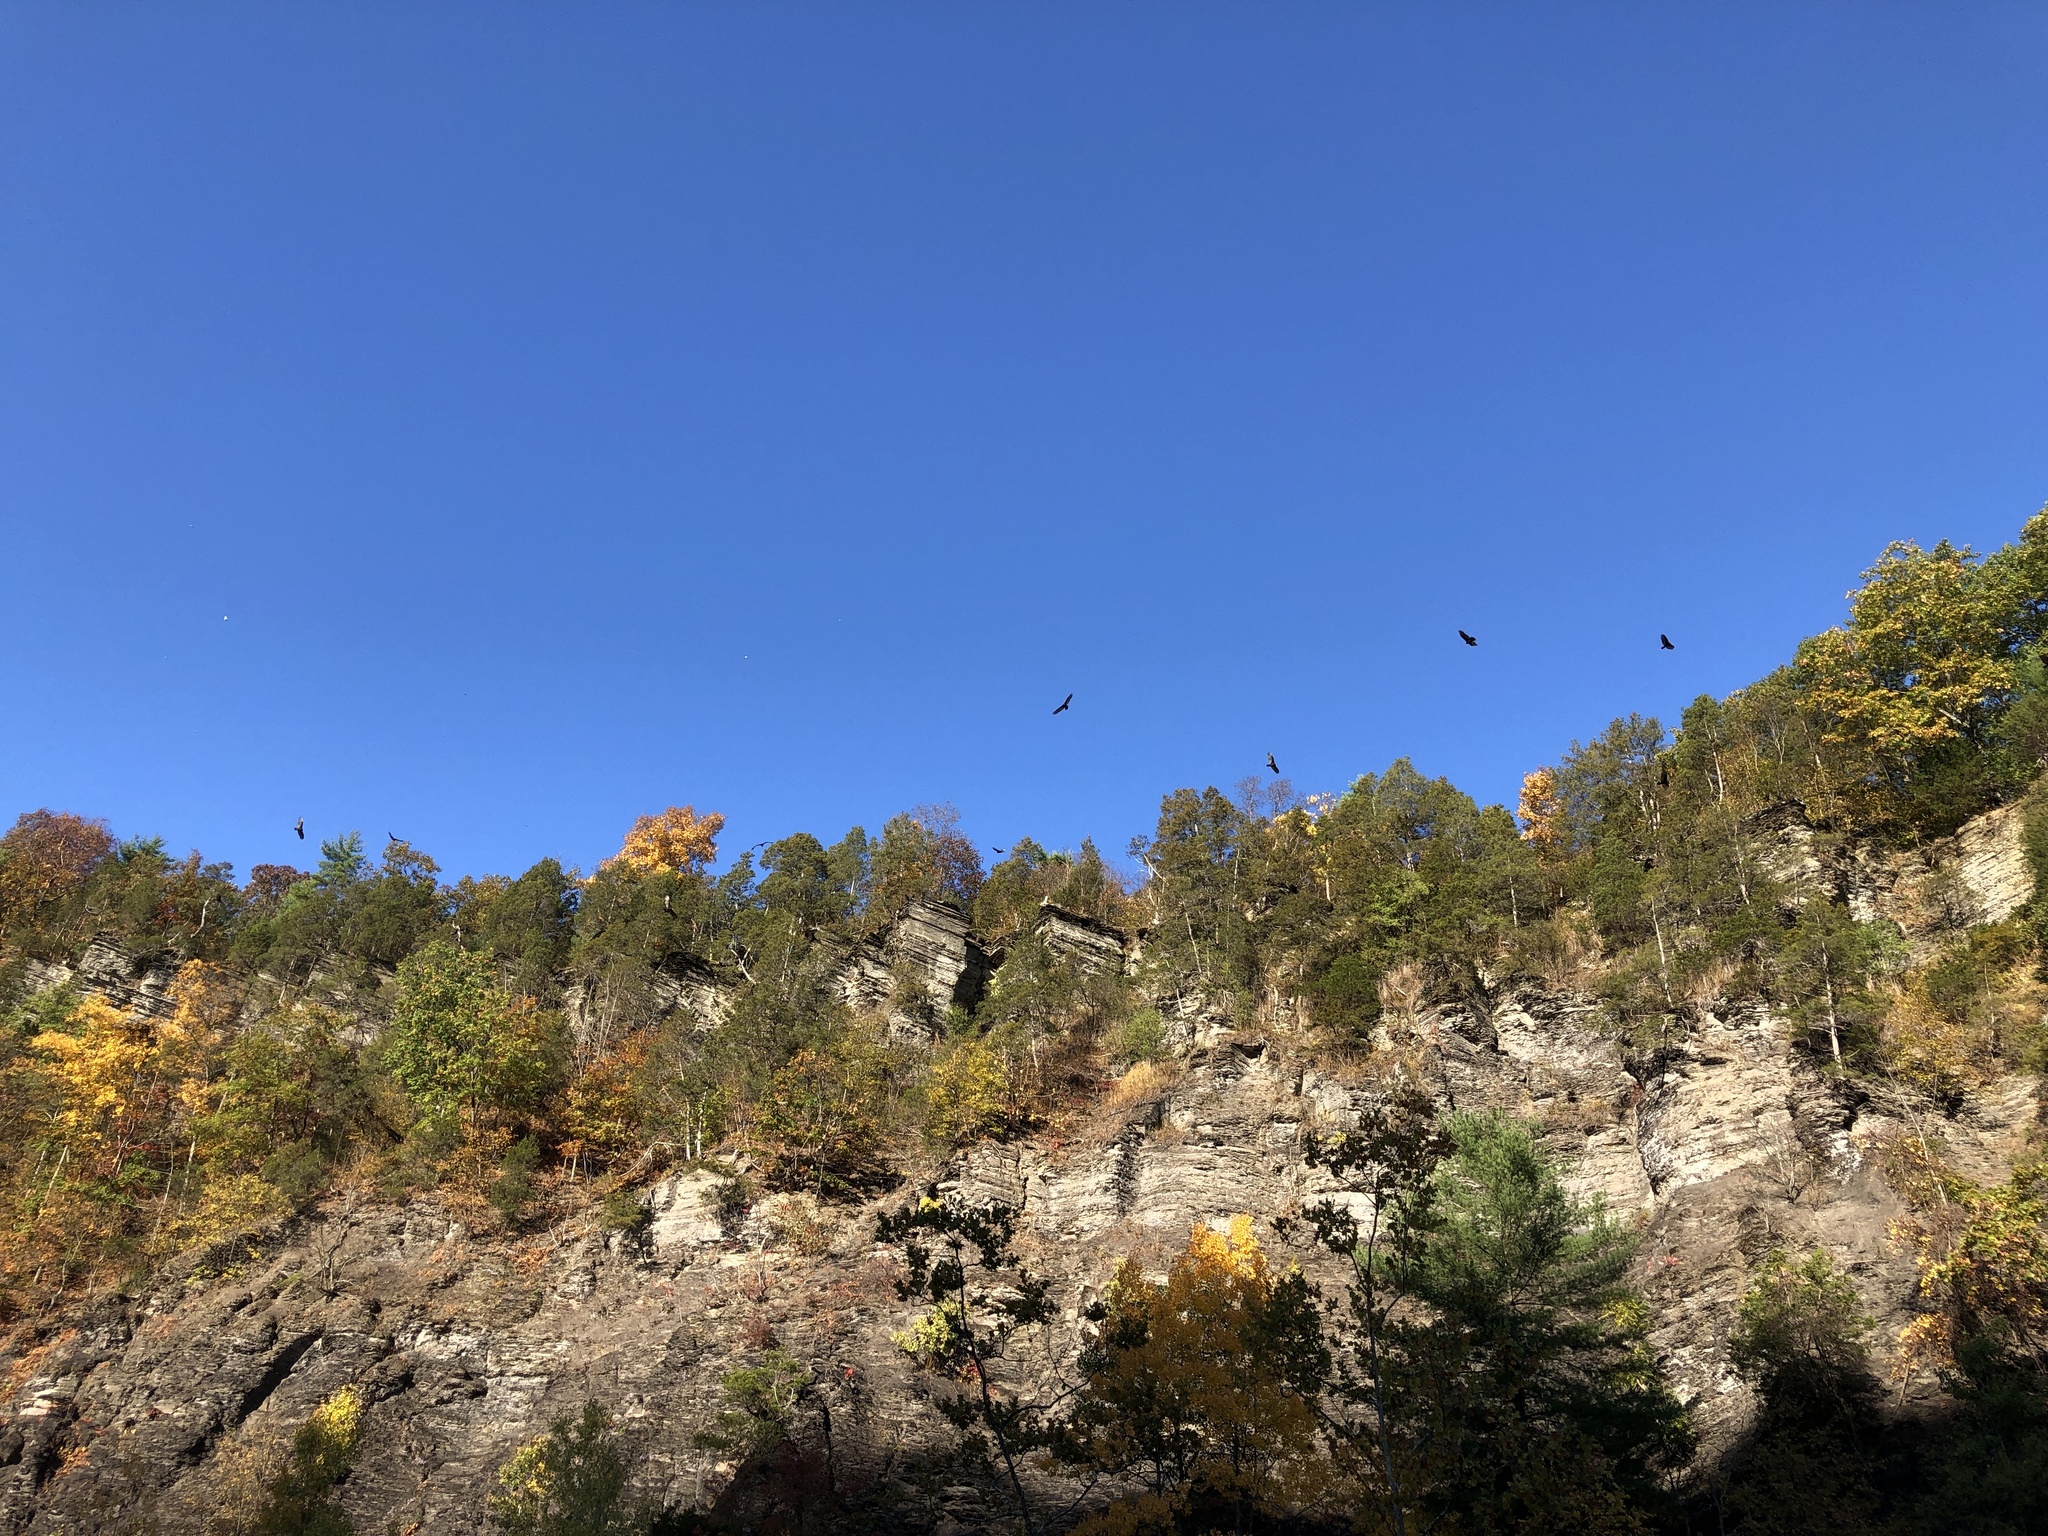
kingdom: Animalia
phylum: Chordata
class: Aves
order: Accipitriformes
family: Cathartidae
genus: Cathartes
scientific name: Cathartes aura
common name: Turkey vulture
